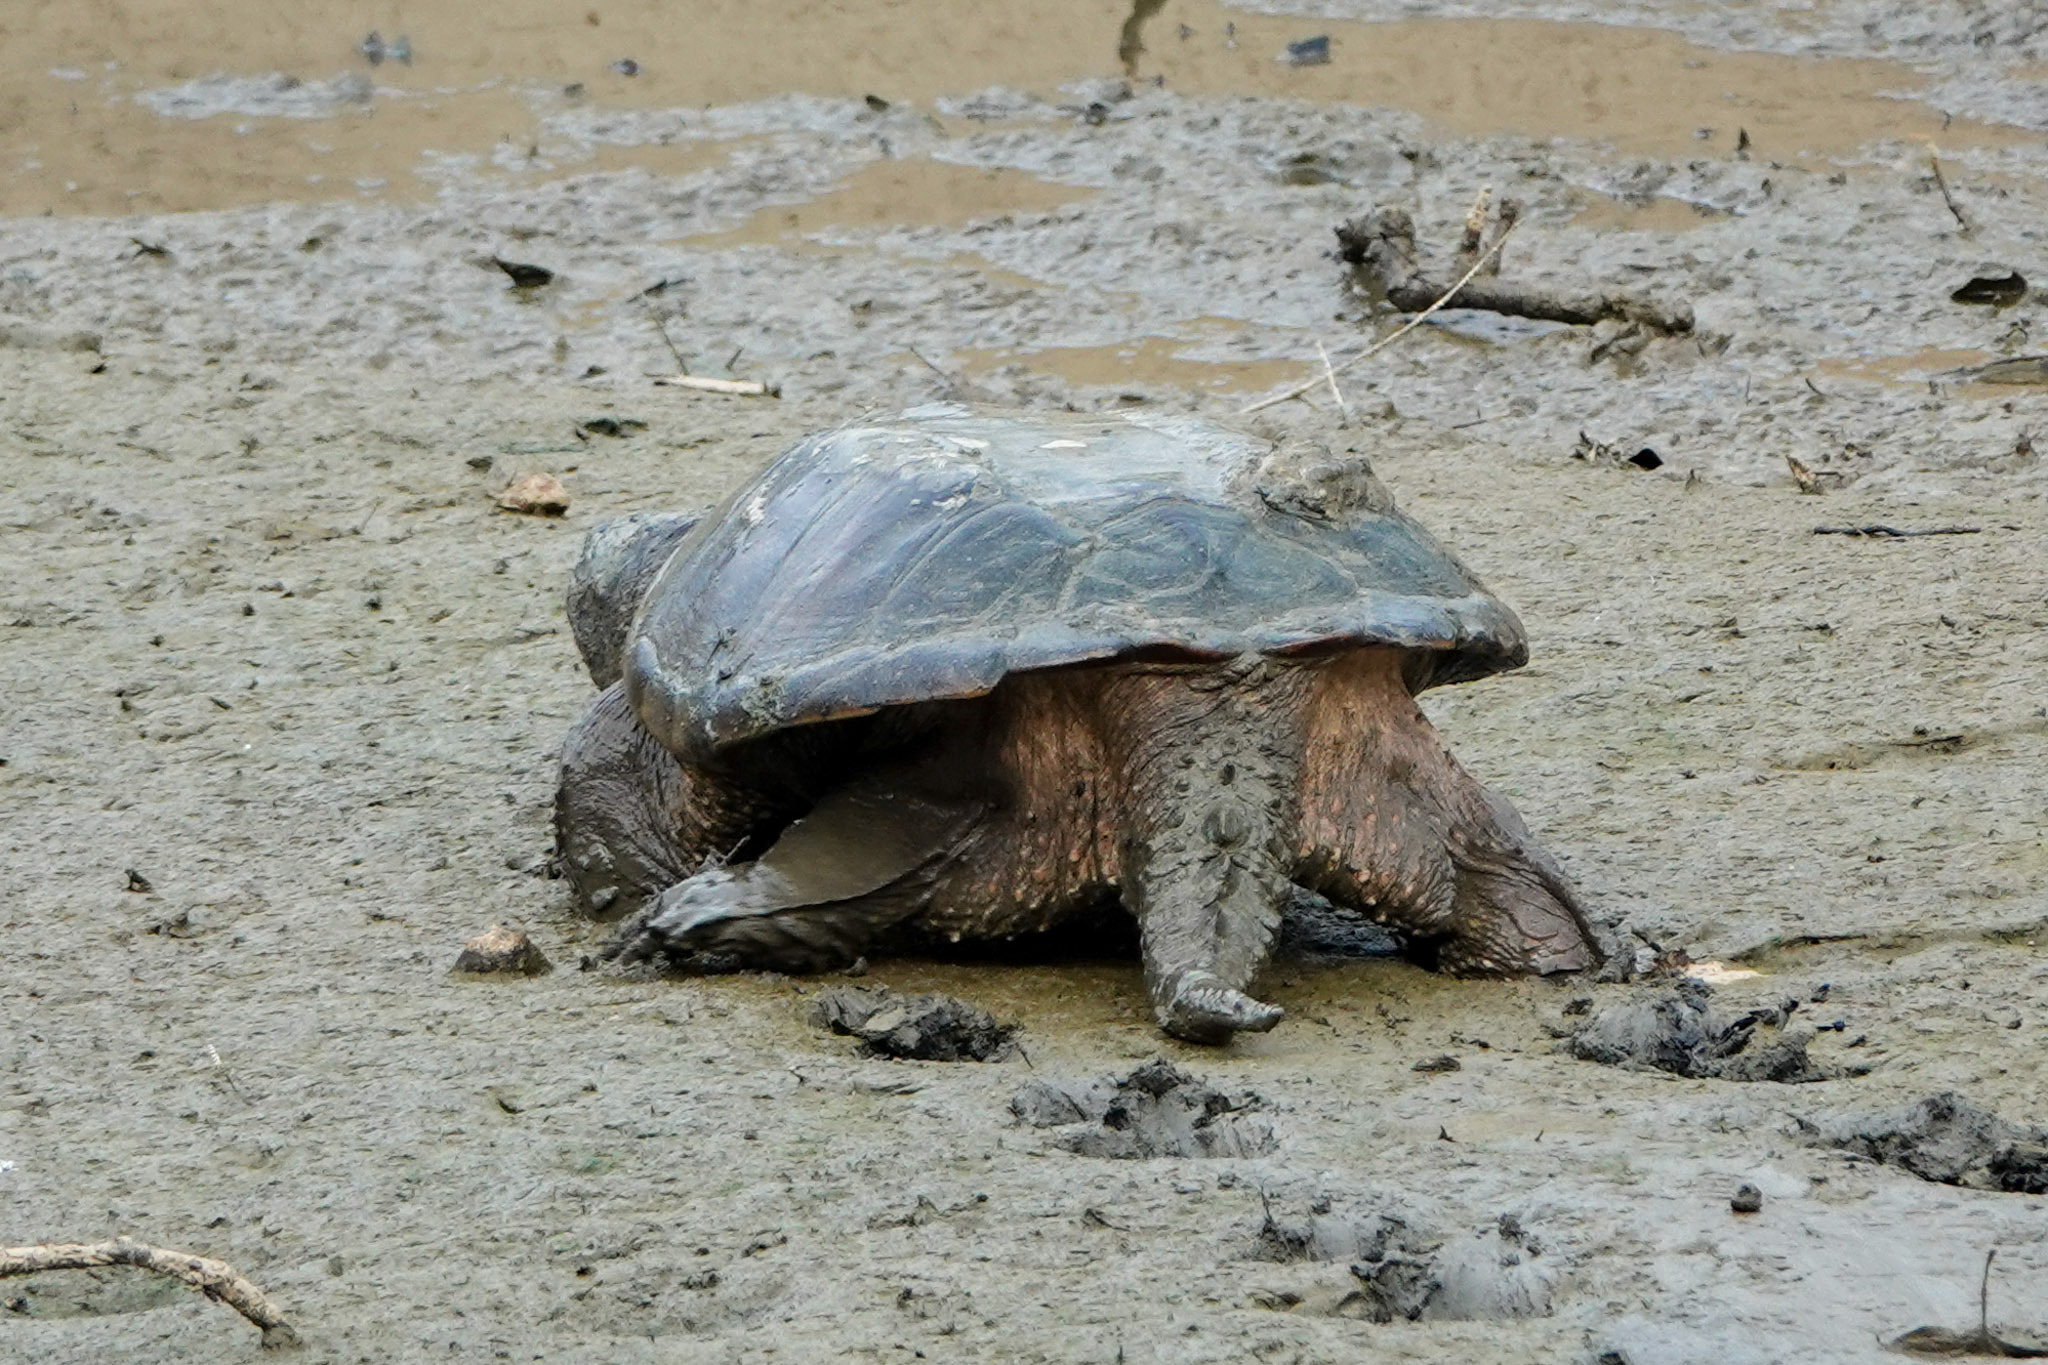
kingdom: Animalia
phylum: Chordata
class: Testudines
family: Chelydridae
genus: Chelydra
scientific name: Chelydra serpentina
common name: Common snapping turtle
